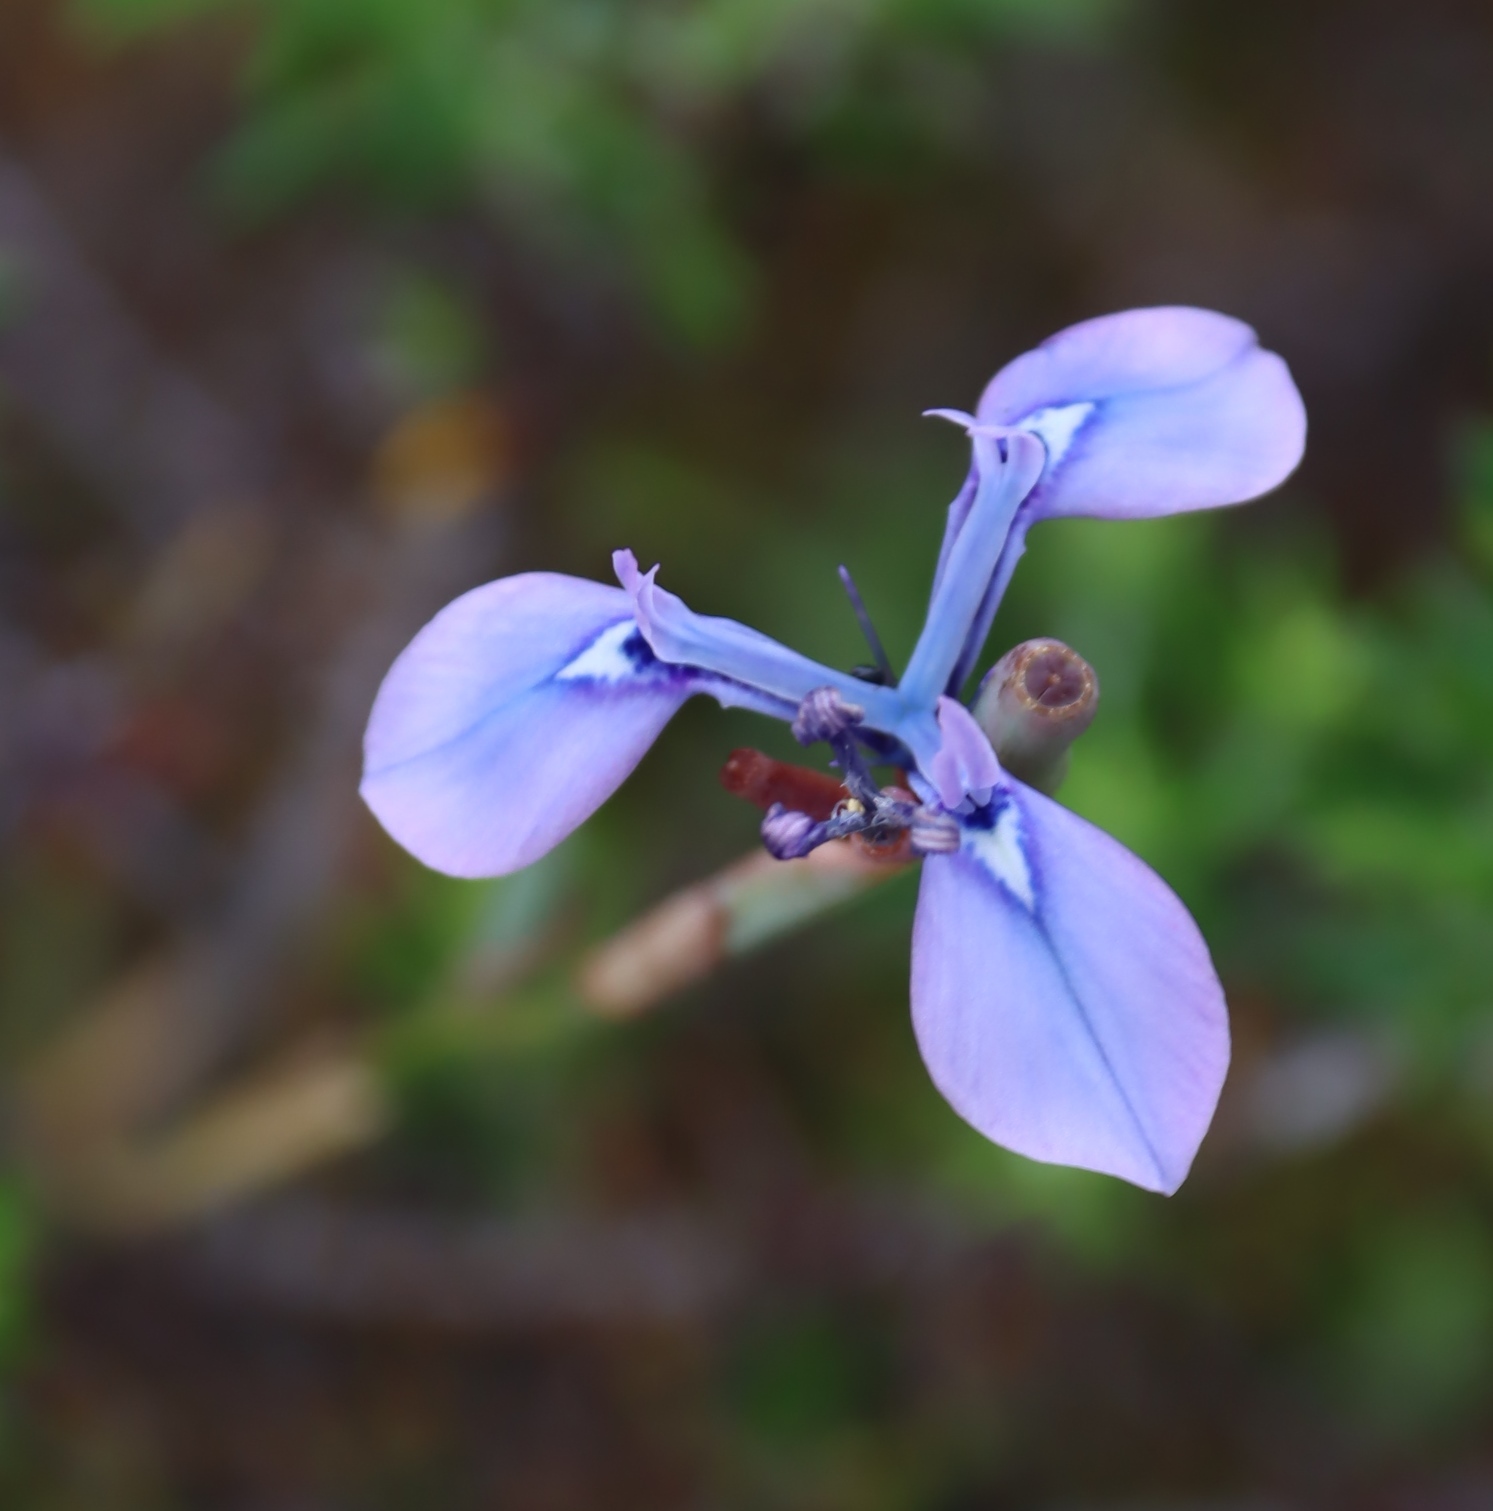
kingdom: Plantae
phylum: Tracheophyta
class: Liliopsida
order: Asparagales
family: Iridaceae
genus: Moraea
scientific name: Moraea tripetala
